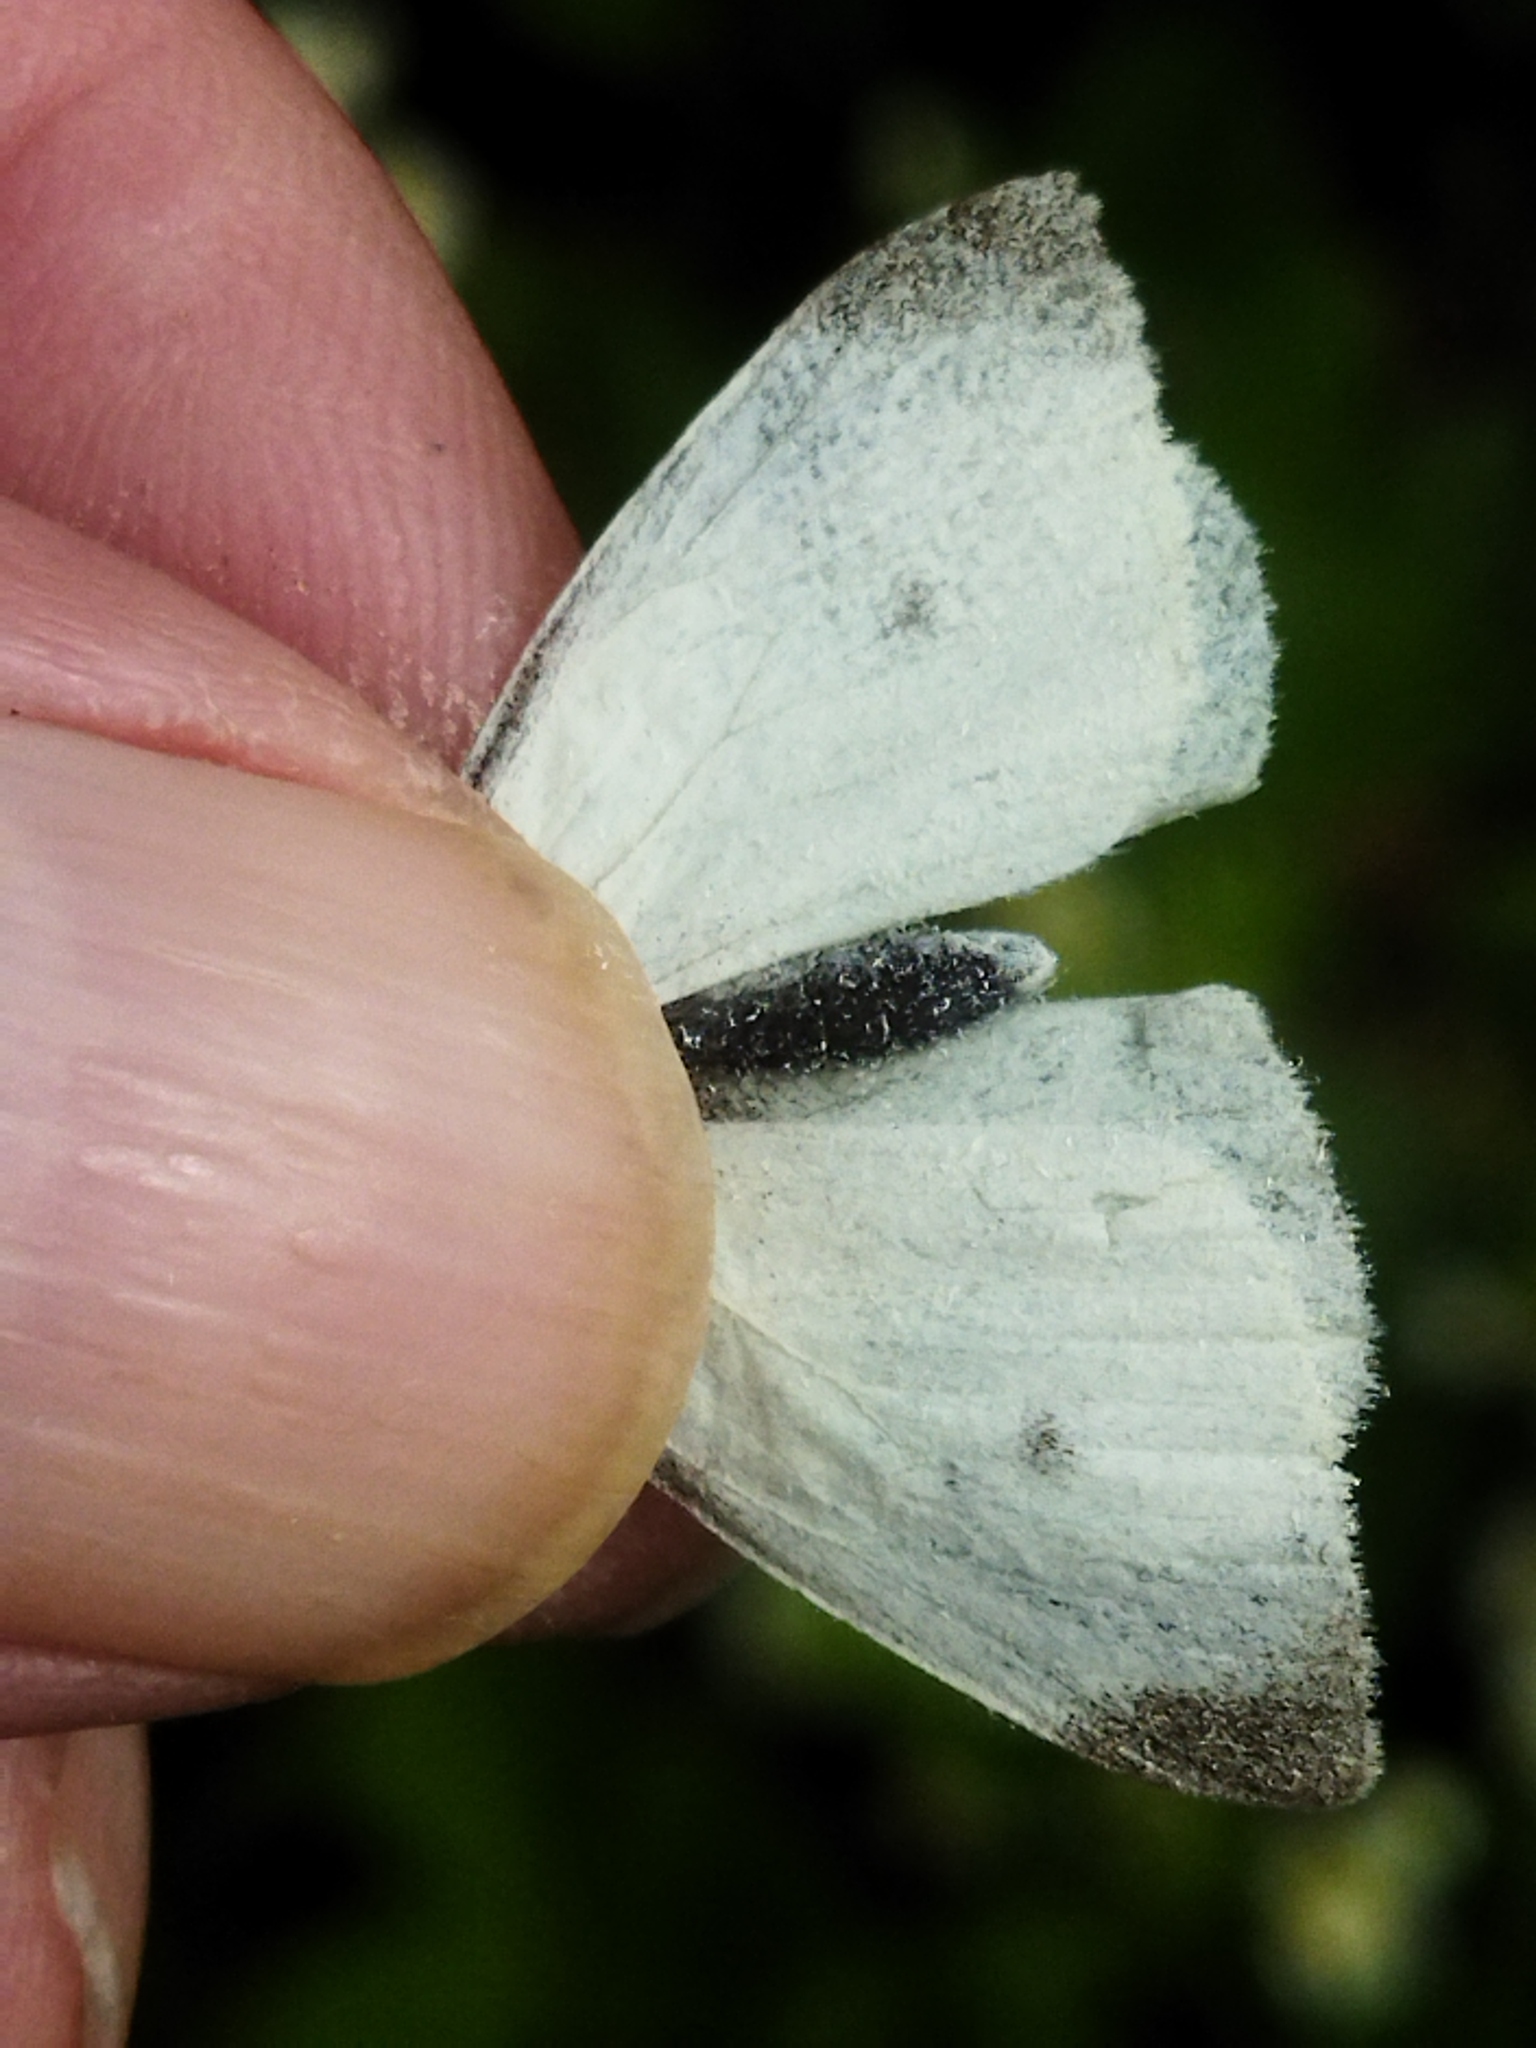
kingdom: Animalia
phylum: Arthropoda
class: Insecta
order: Lepidoptera
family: Pieridae
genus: Pieris
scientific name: Pieris rapae
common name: Small white
